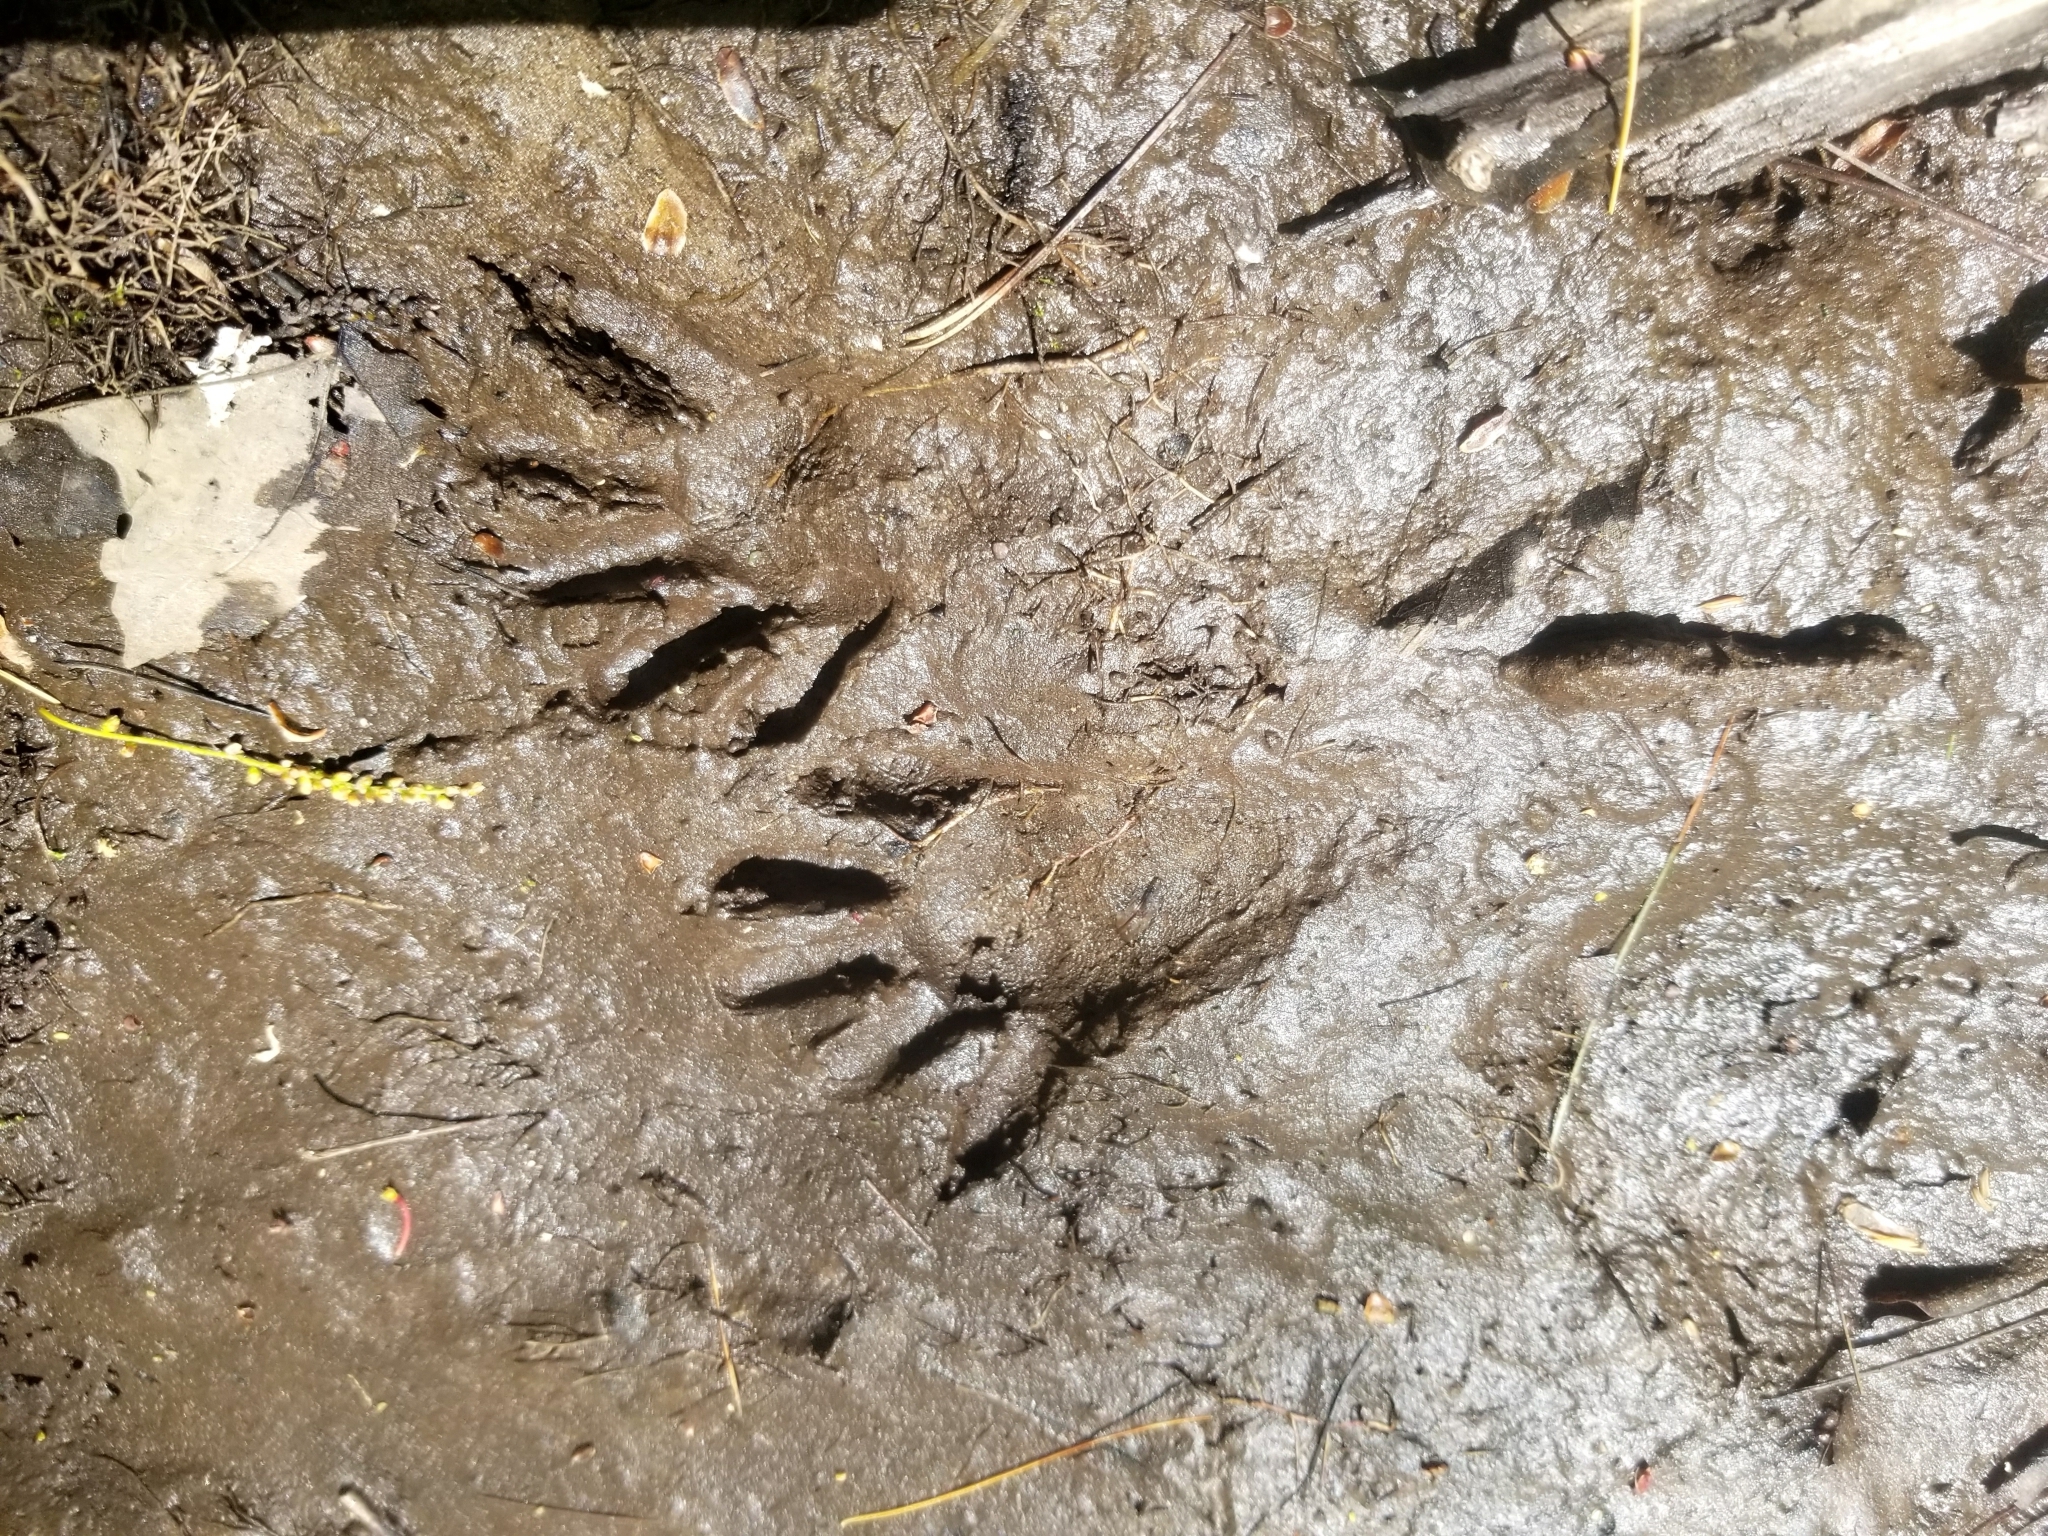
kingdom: Animalia
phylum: Chordata
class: Mammalia
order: Carnivora
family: Procyonidae
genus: Procyon
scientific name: Procyon lotor
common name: Raccoon
